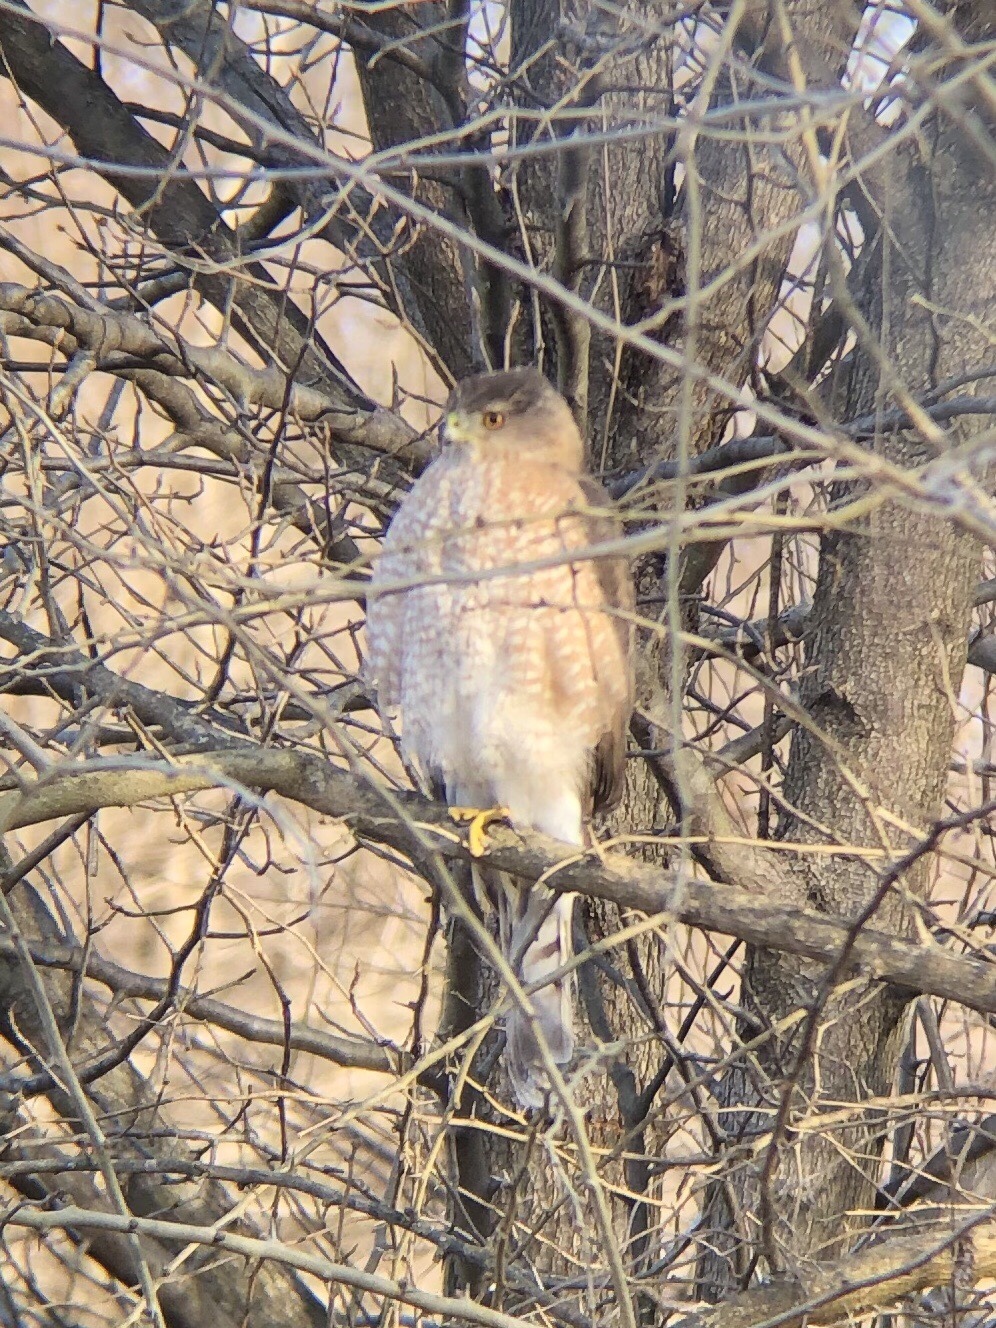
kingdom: Animalia
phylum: Chordata
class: Aves
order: Accipitriformes
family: Accipitridae
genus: Accipiter
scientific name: Accipiter cooperii
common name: Cooper's hawk
